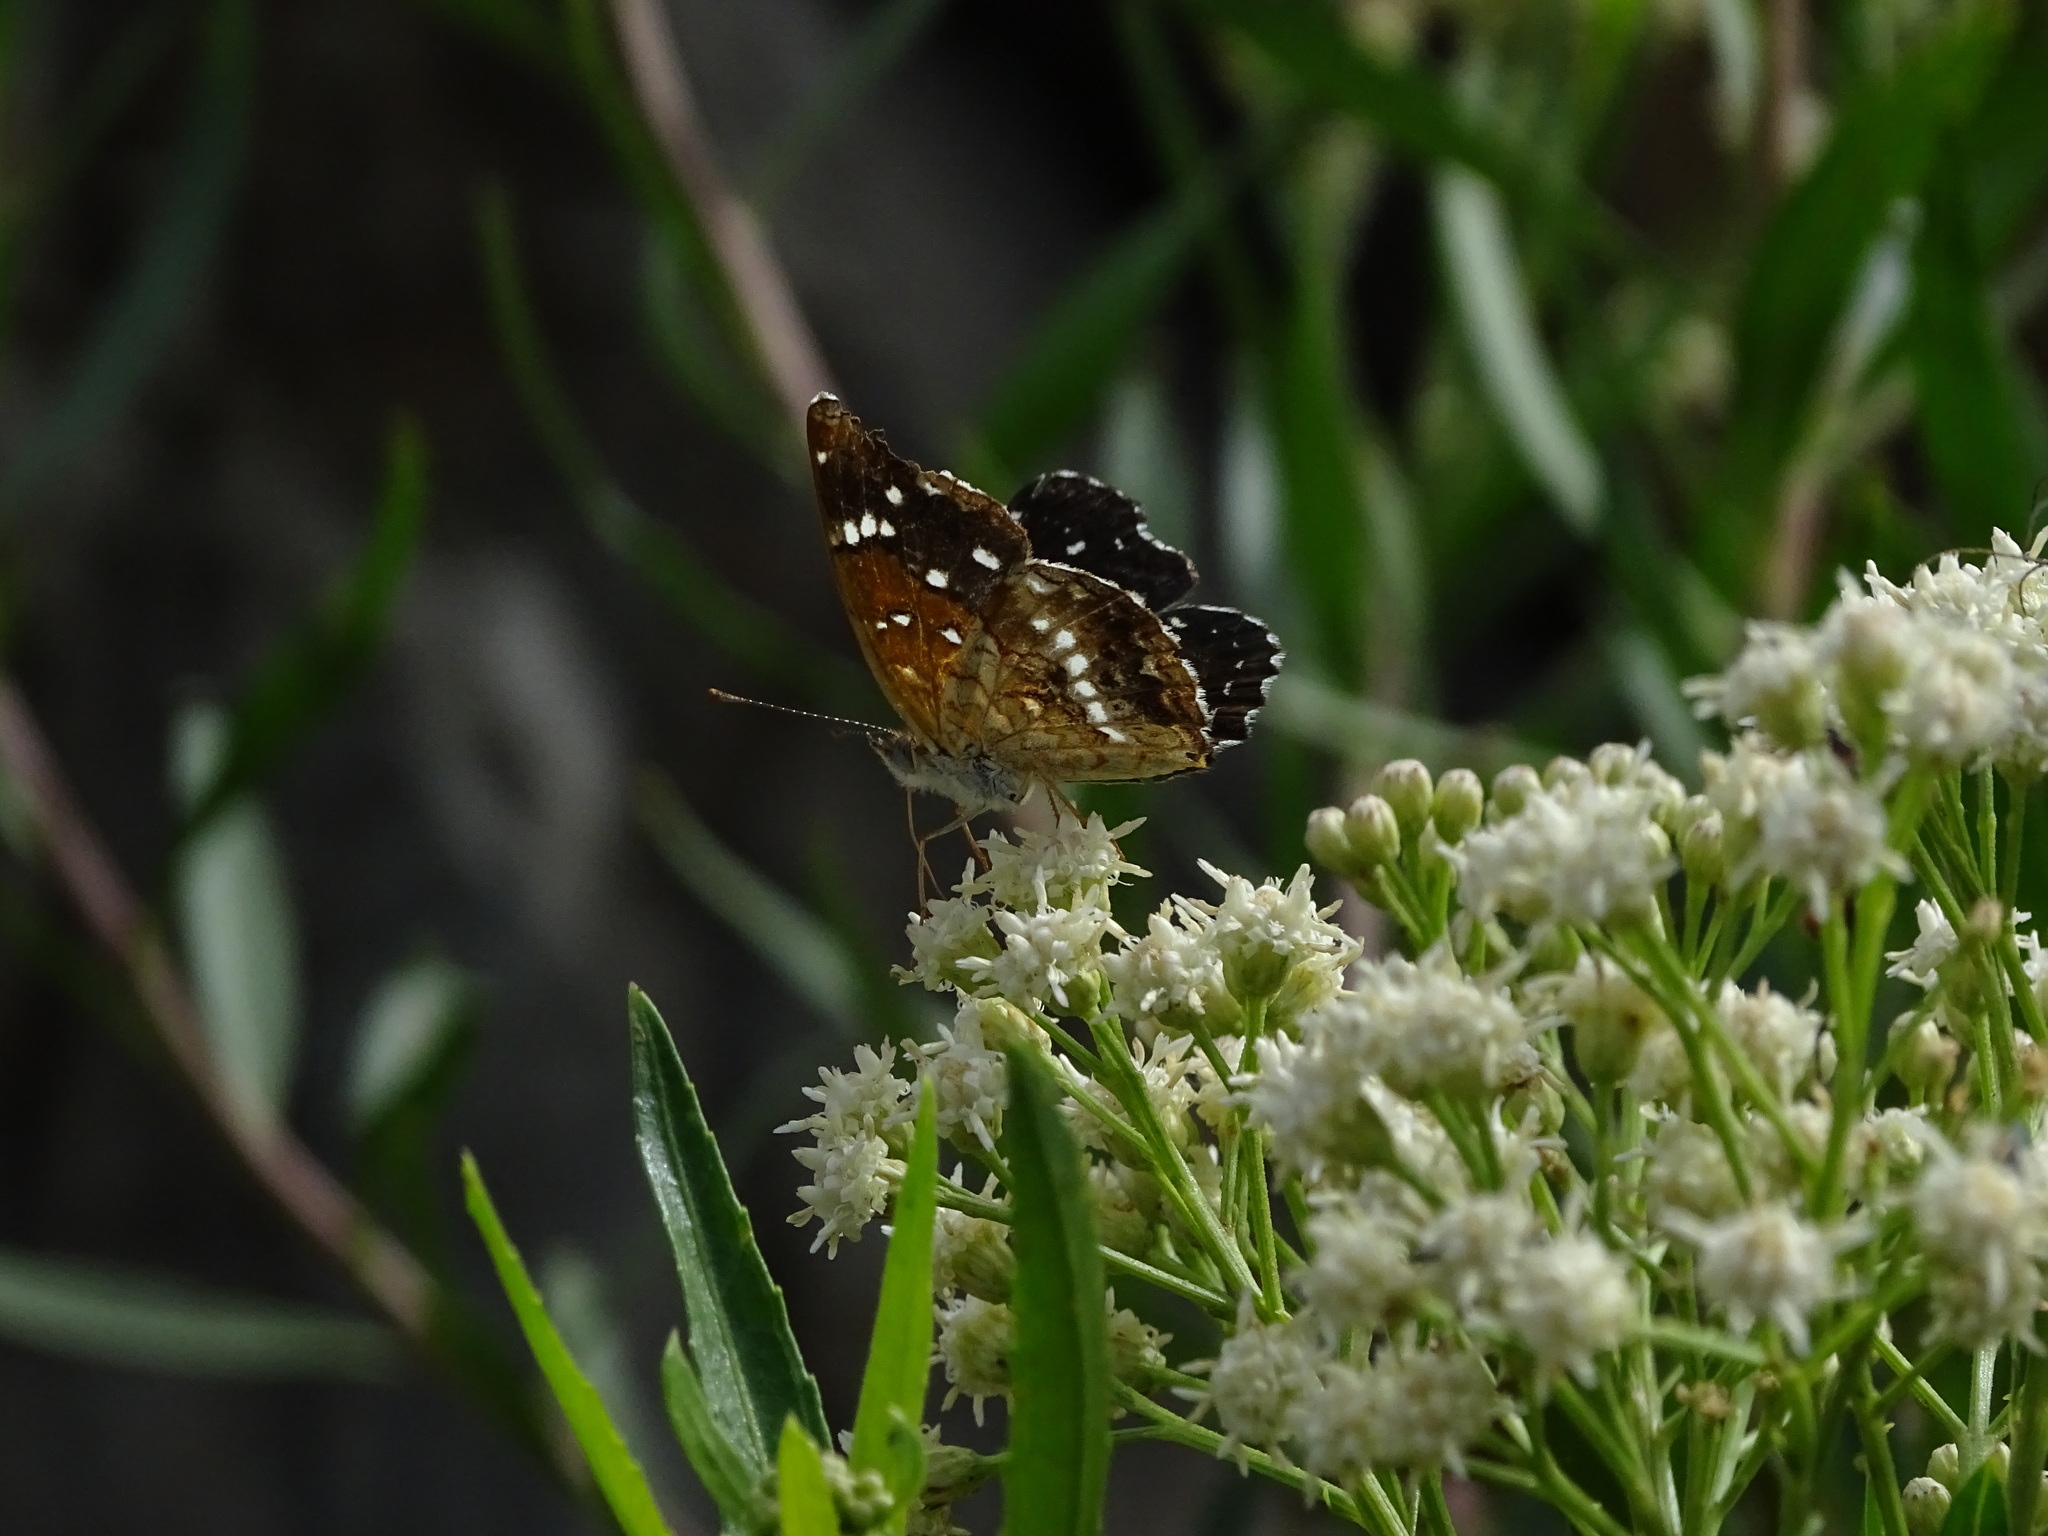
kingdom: Animalia
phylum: Arthropoda
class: Insecta
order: Lepidoptera
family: Nymphalidae
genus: Anthanassa
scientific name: Anthanassa texana
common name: Texan crescent
